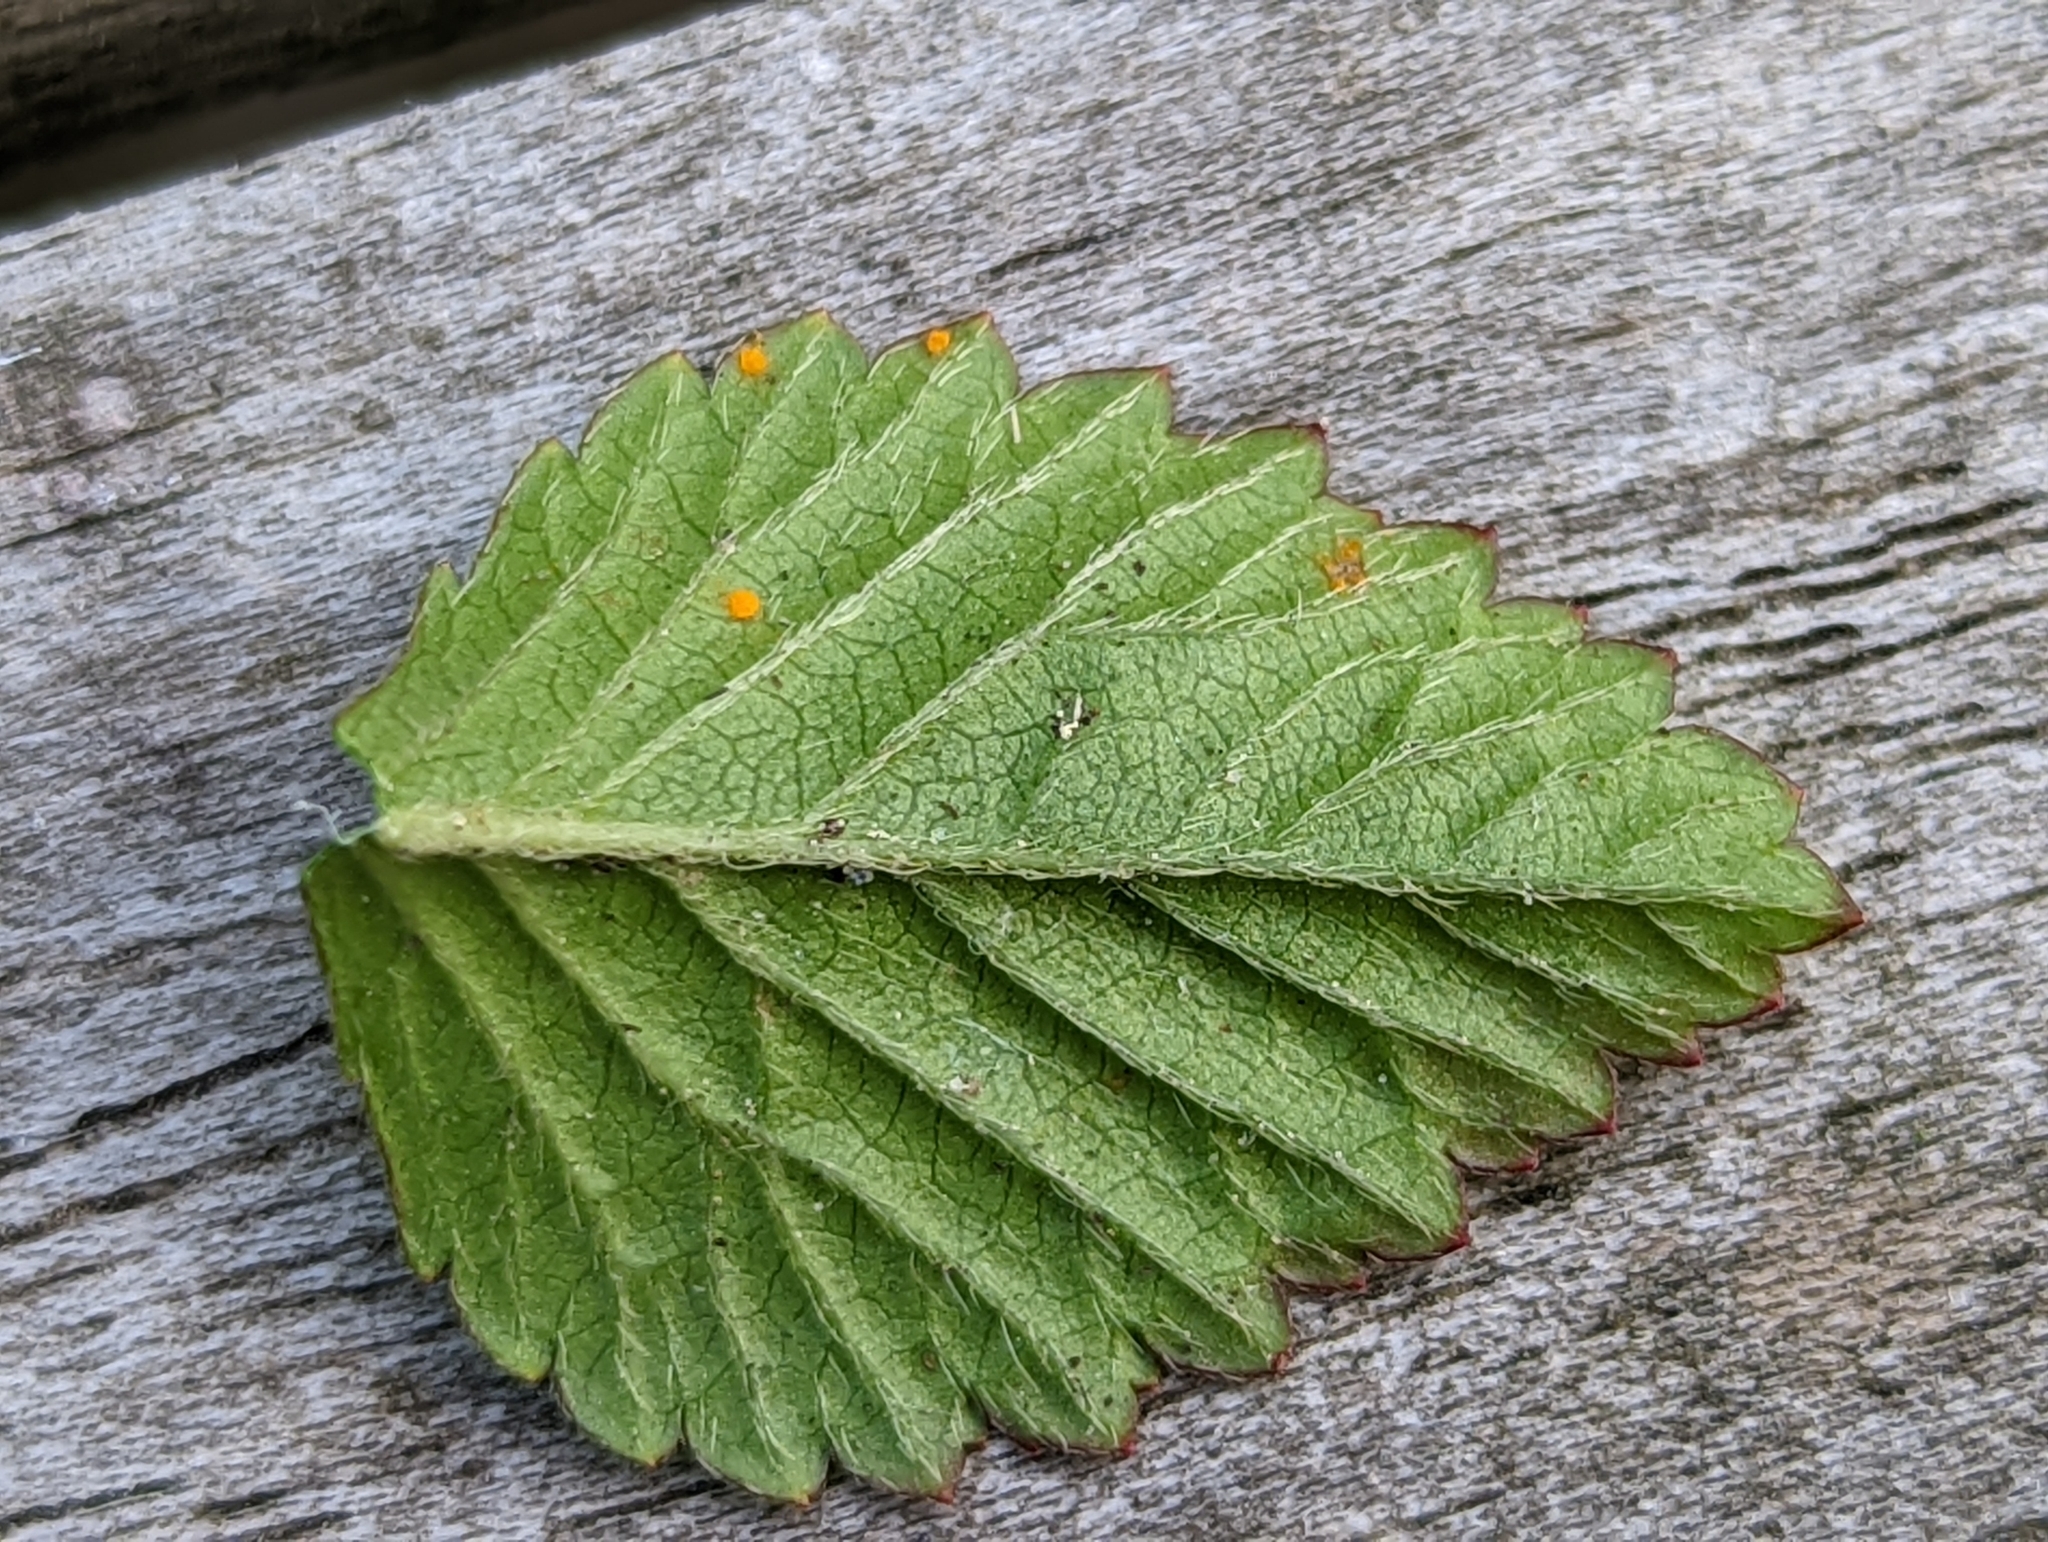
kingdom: Fungi
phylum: Basidiomycota
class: Pucciniomycetes
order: Pucciniales
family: Phragmidiaceae
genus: Phragmidium
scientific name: Phragmidium mexicanum
